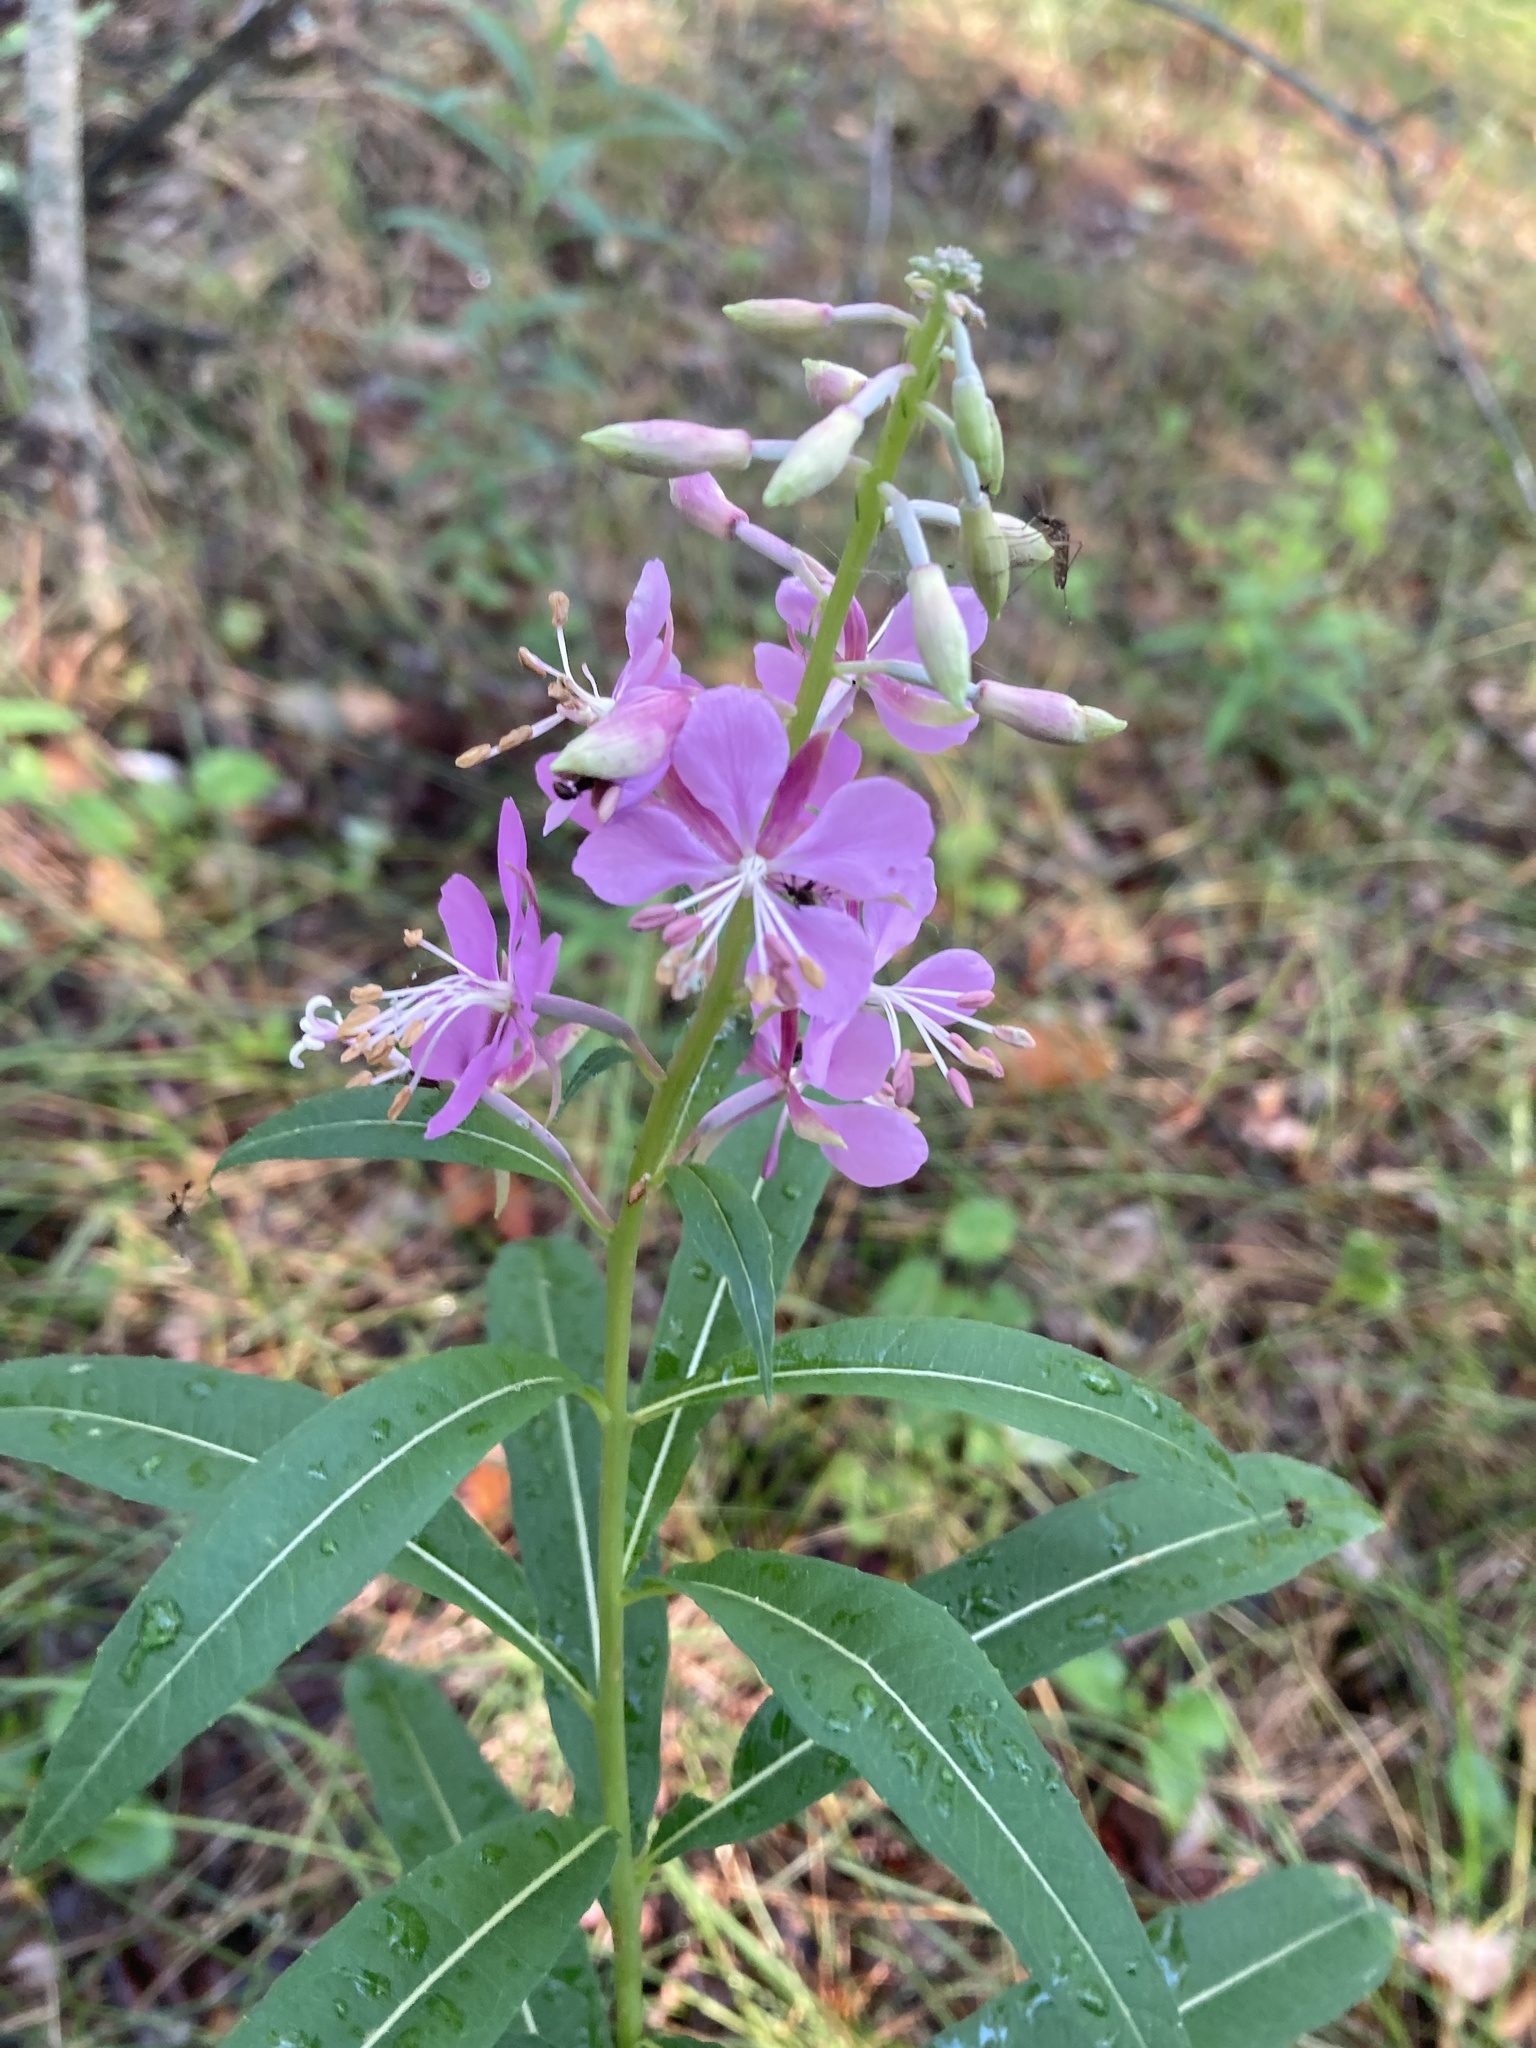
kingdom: Plantae
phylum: Tracheophyta
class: Magnoliopsida
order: Myrtales
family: Onagraceae
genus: Chamaenerion
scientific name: Chamaenerion angustifolium
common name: Fireweed
